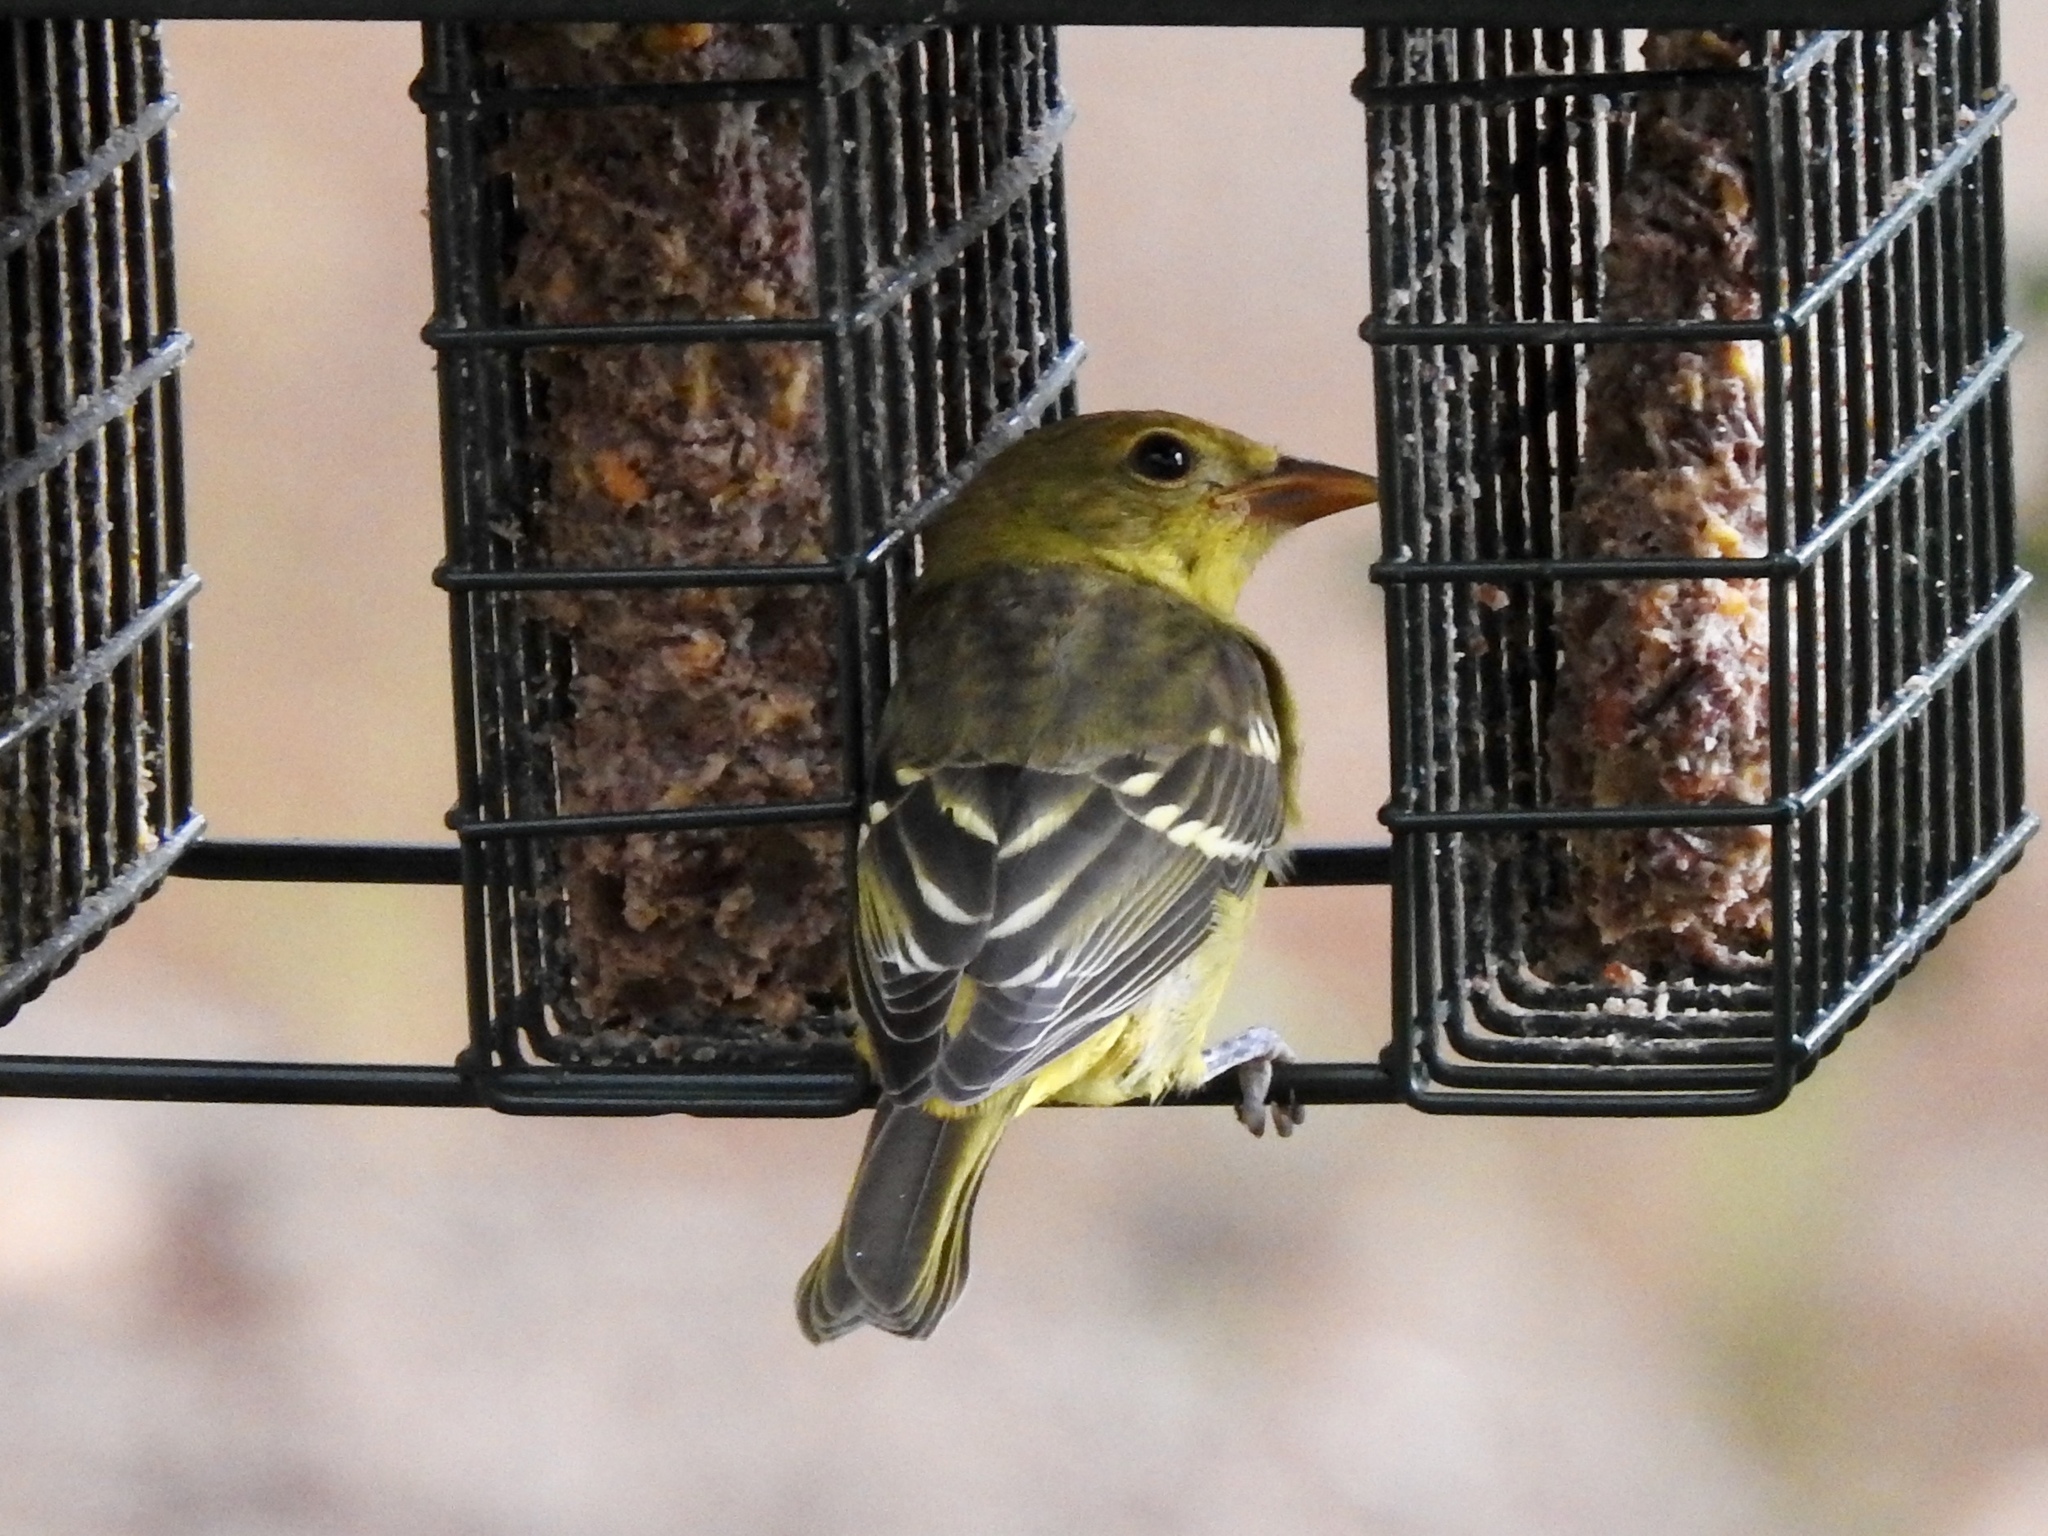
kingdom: Animalia
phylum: Chordata
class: Aves
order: Passeriformes
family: Cardinalidae
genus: Piranga
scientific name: Piranga ludoviciana
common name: Western tanager
